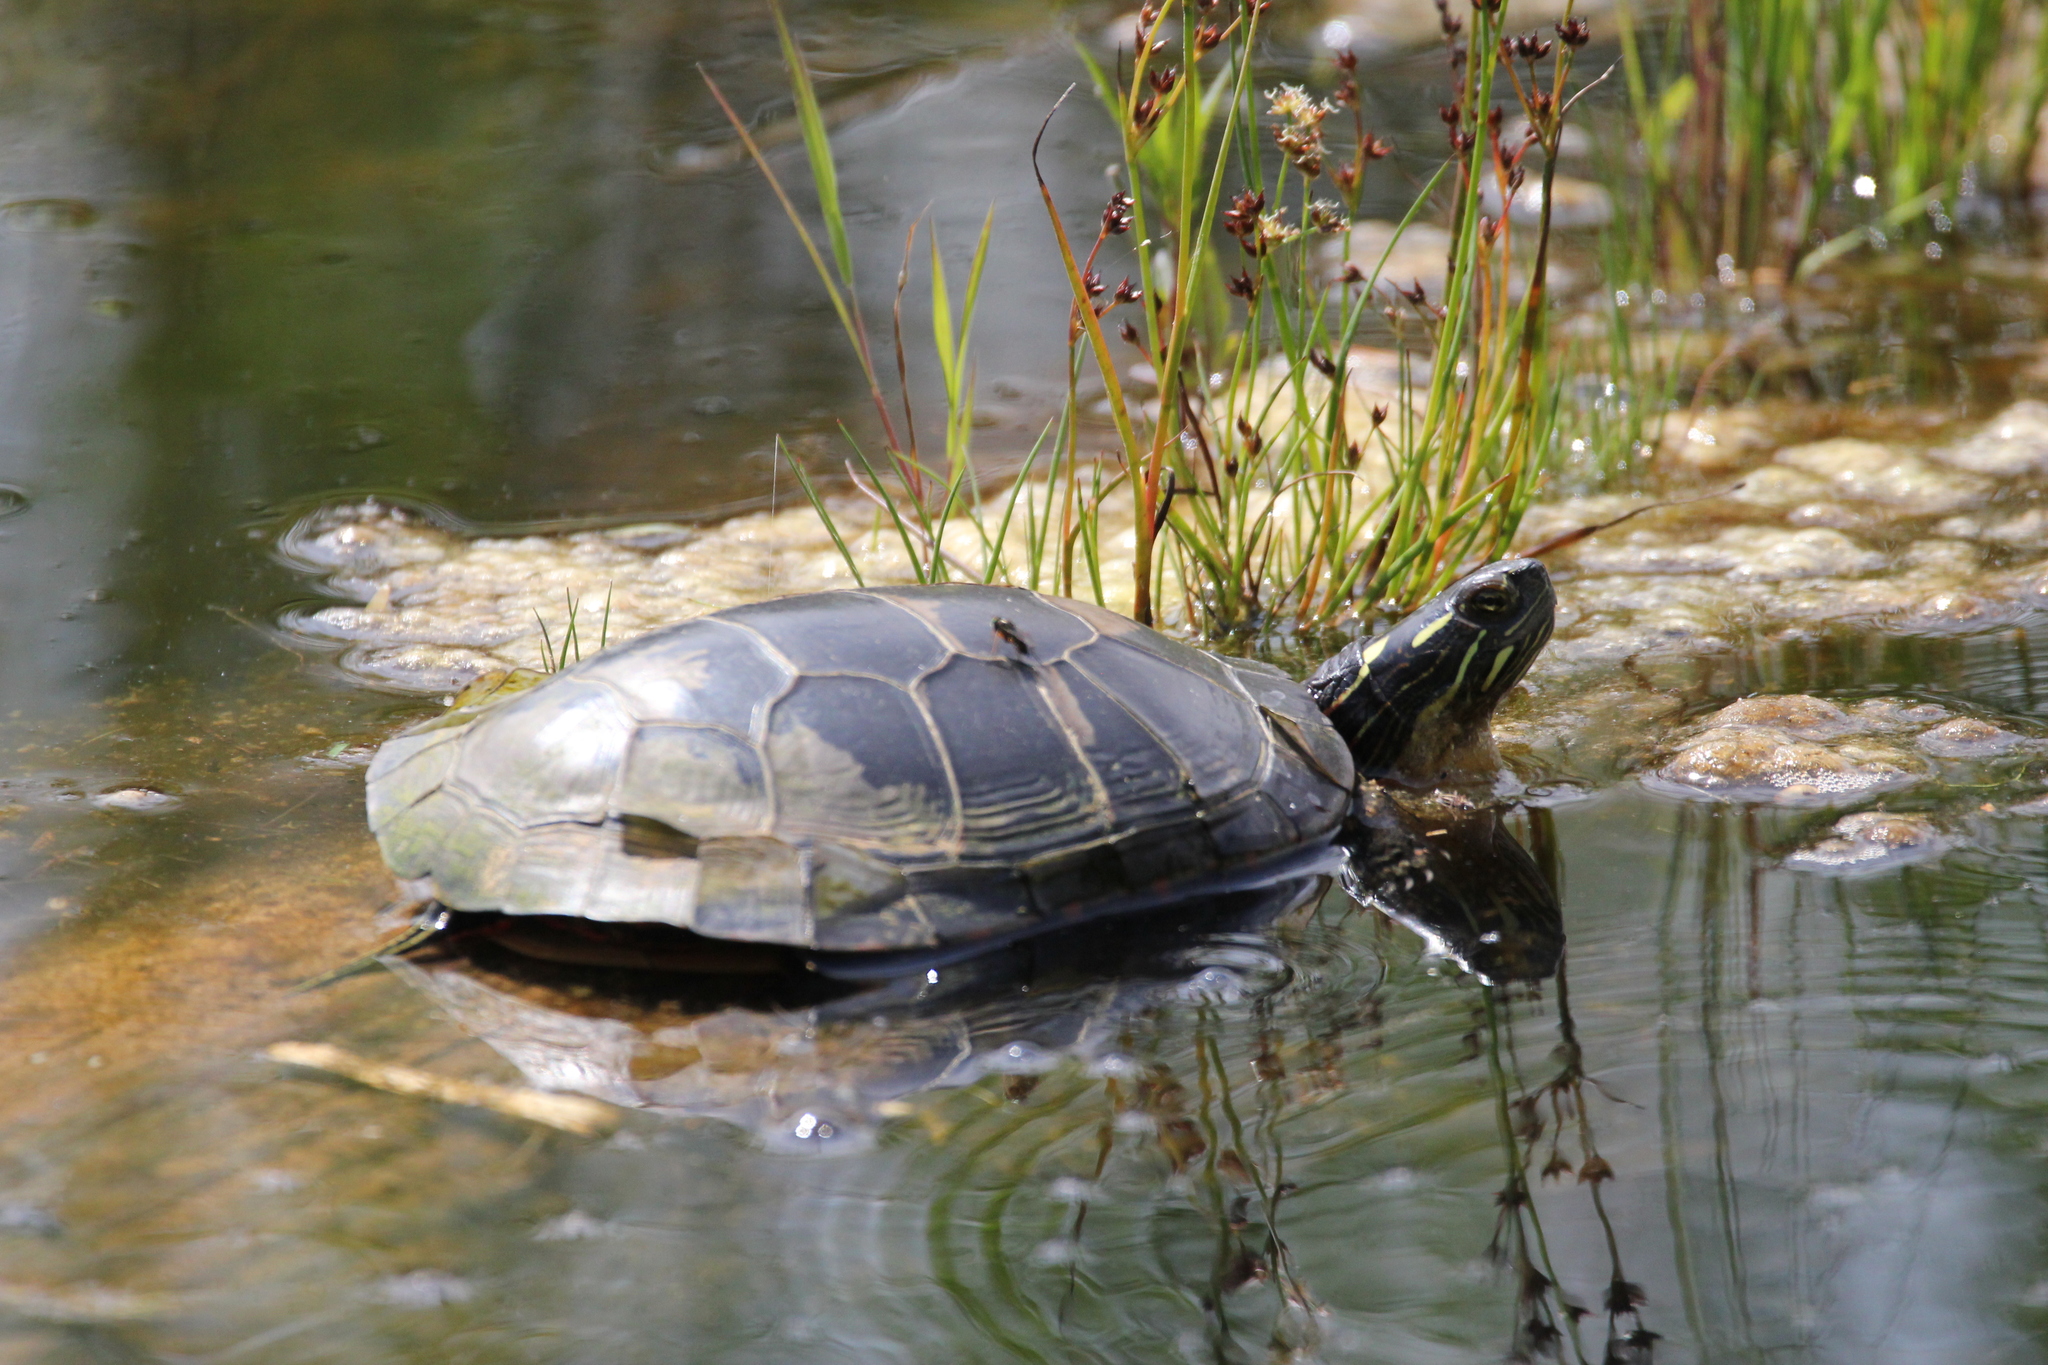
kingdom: Animalia
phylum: Chordata
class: Testudines
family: Emydidae
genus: Chrysemys
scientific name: Chrysemys picta
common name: Painted turtle
